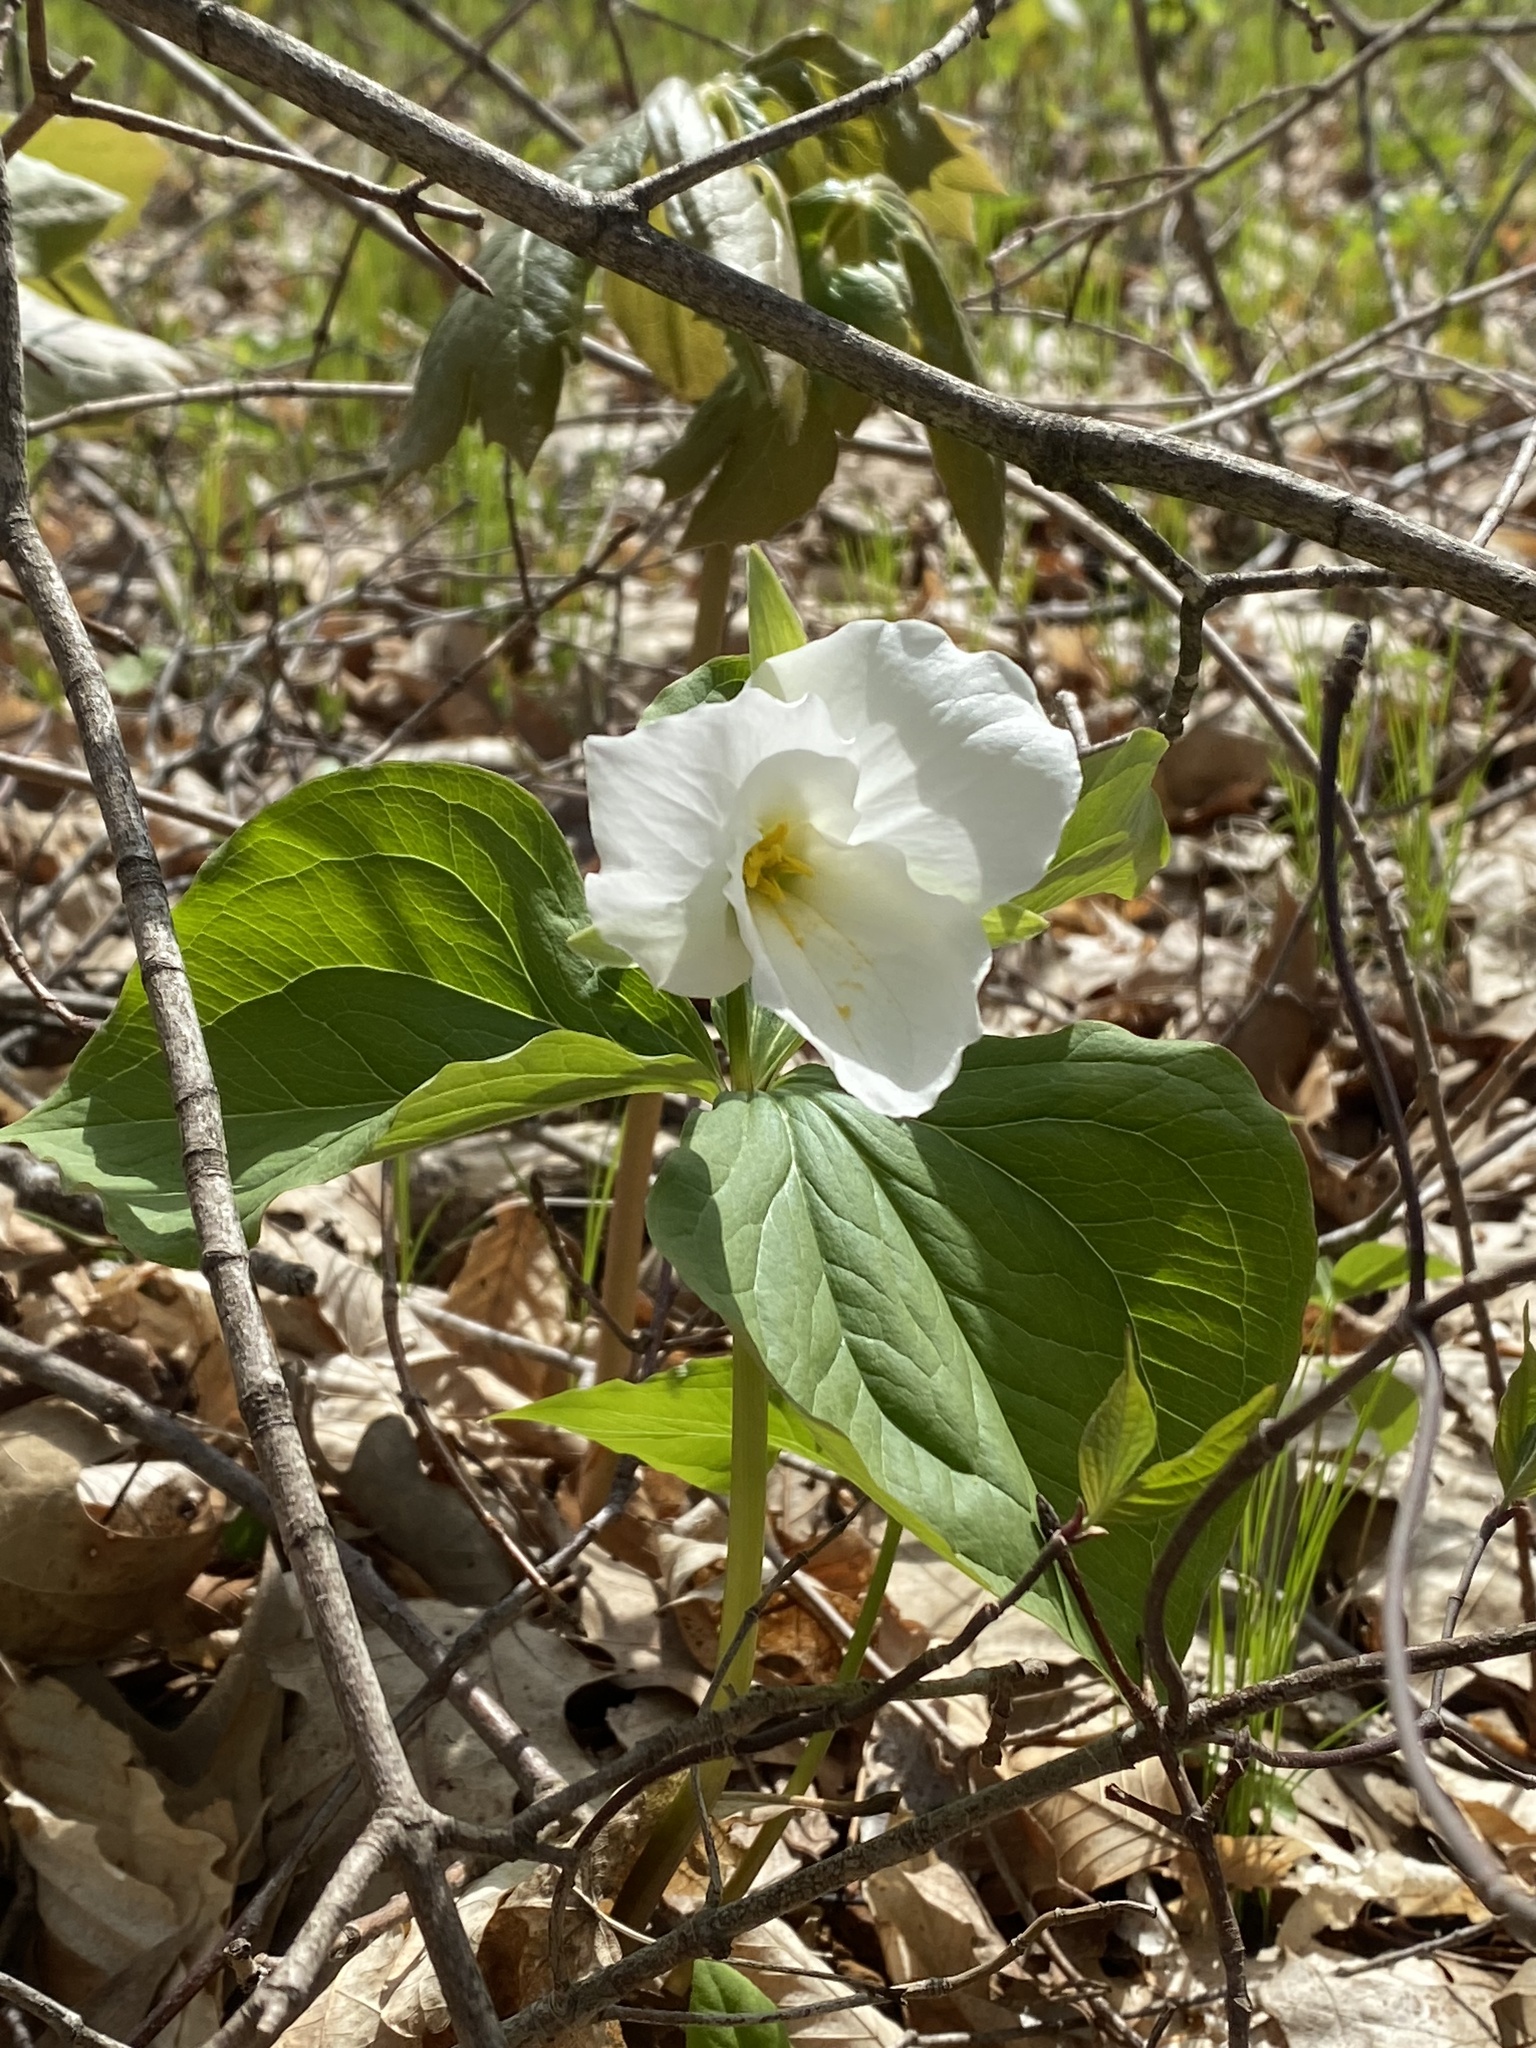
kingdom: Plantae
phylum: Tracheophyta
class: Liliopsida
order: Liliales
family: Melanthiaceae
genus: Trillium
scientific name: Trillium grandiflorum
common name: Great white trillium
